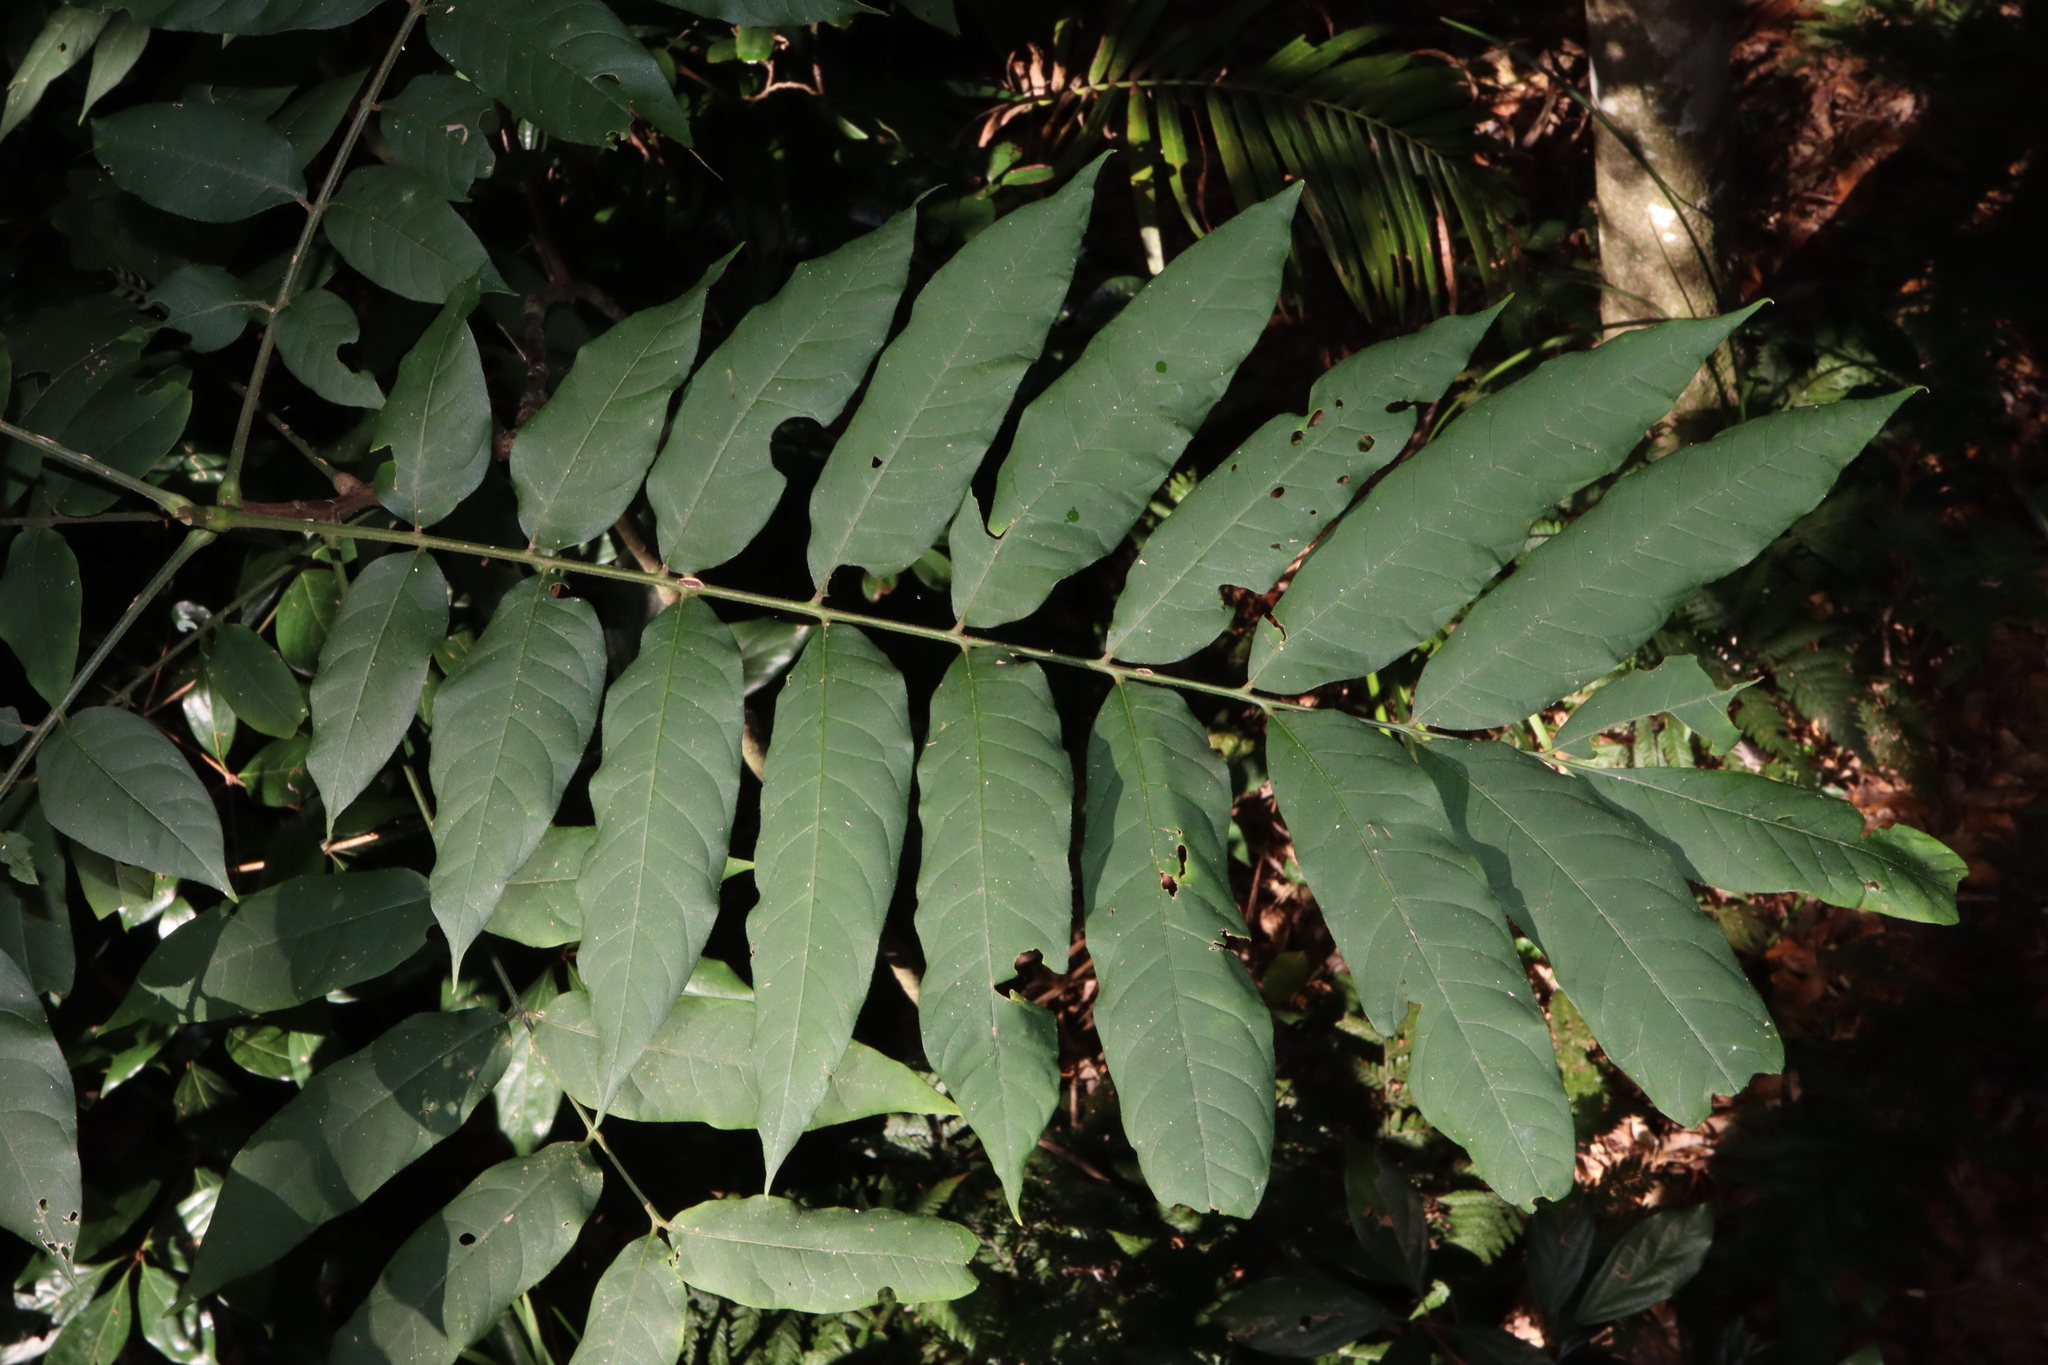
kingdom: Plantae
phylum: Tracheophyta
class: Magnoliopsida
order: Sapindales
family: Meliaceae
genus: Didymocheton
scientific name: Didymocheton rufus
